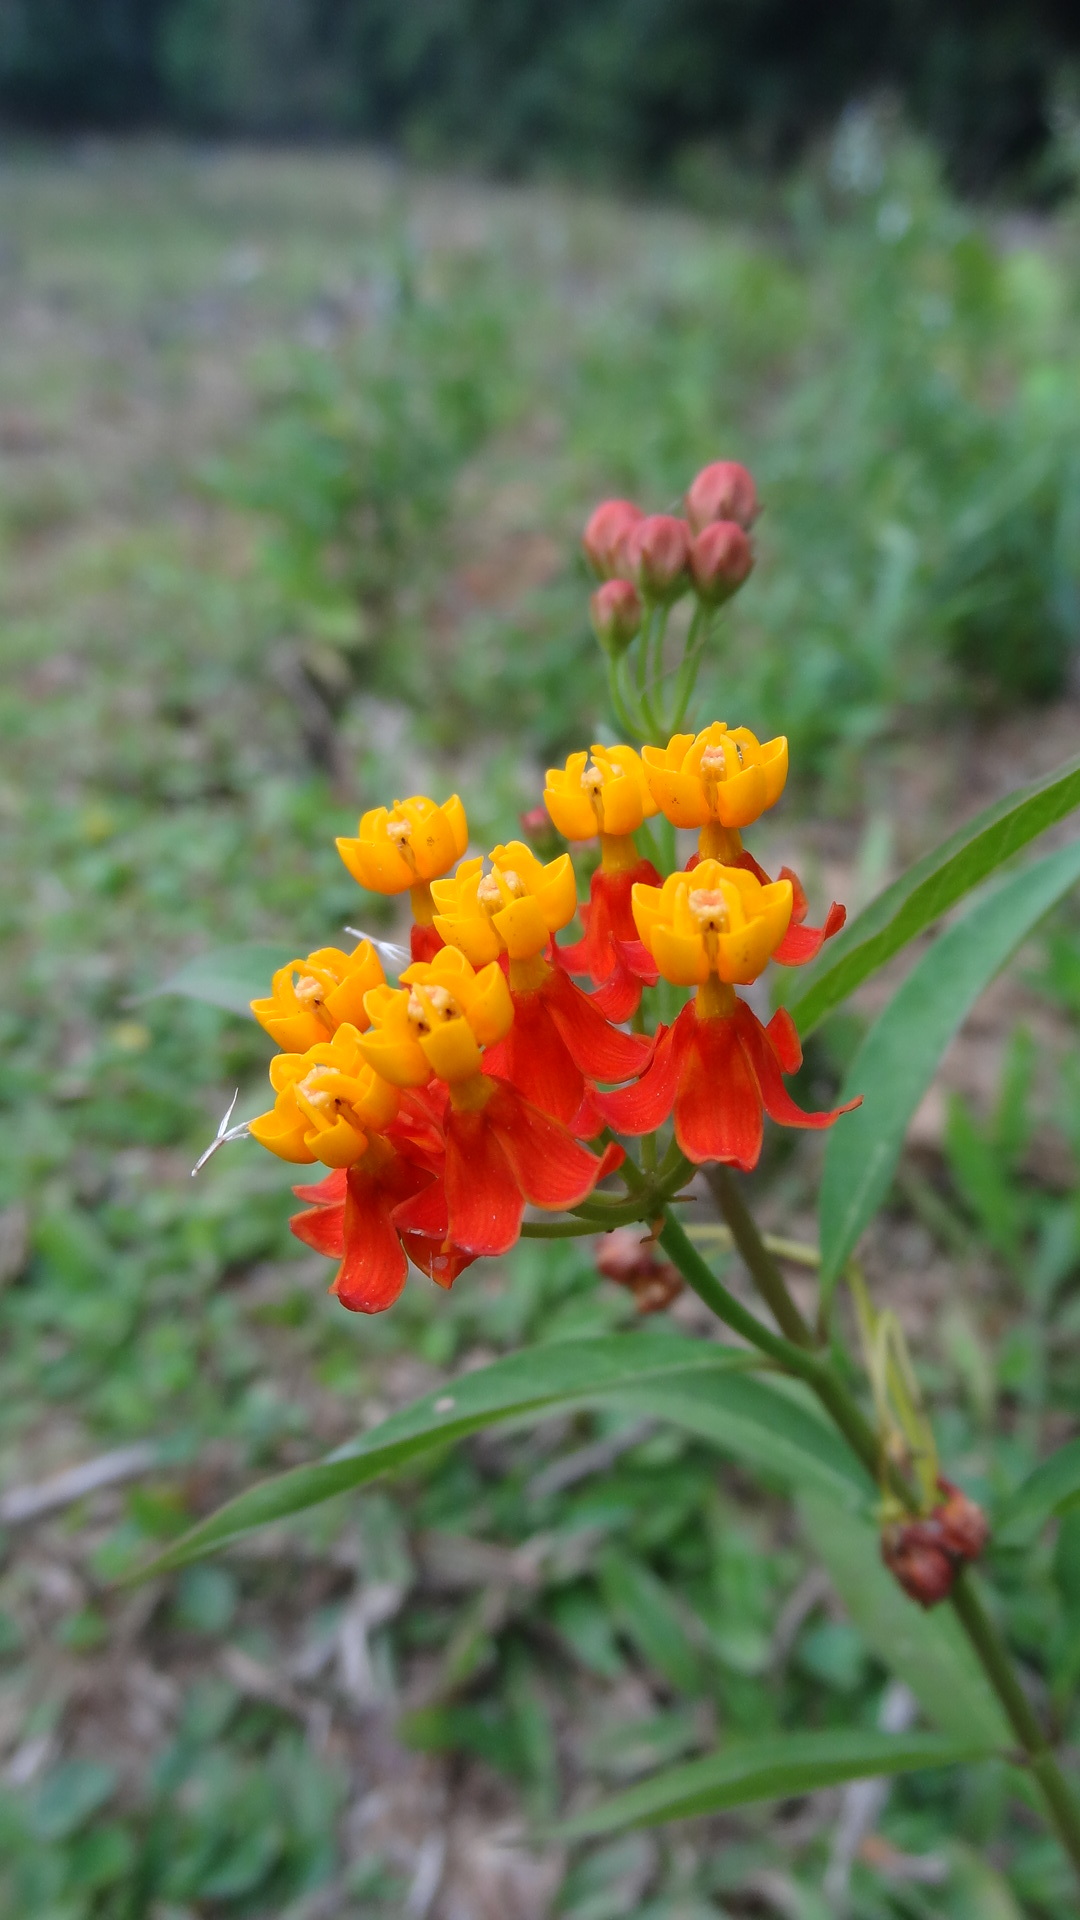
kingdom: Plantae
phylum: Tracheophyta
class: Magnoliopsida
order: Gentianales
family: Apocynaceae
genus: Asclepias
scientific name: Asclepias curassavica
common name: Bloodflower
